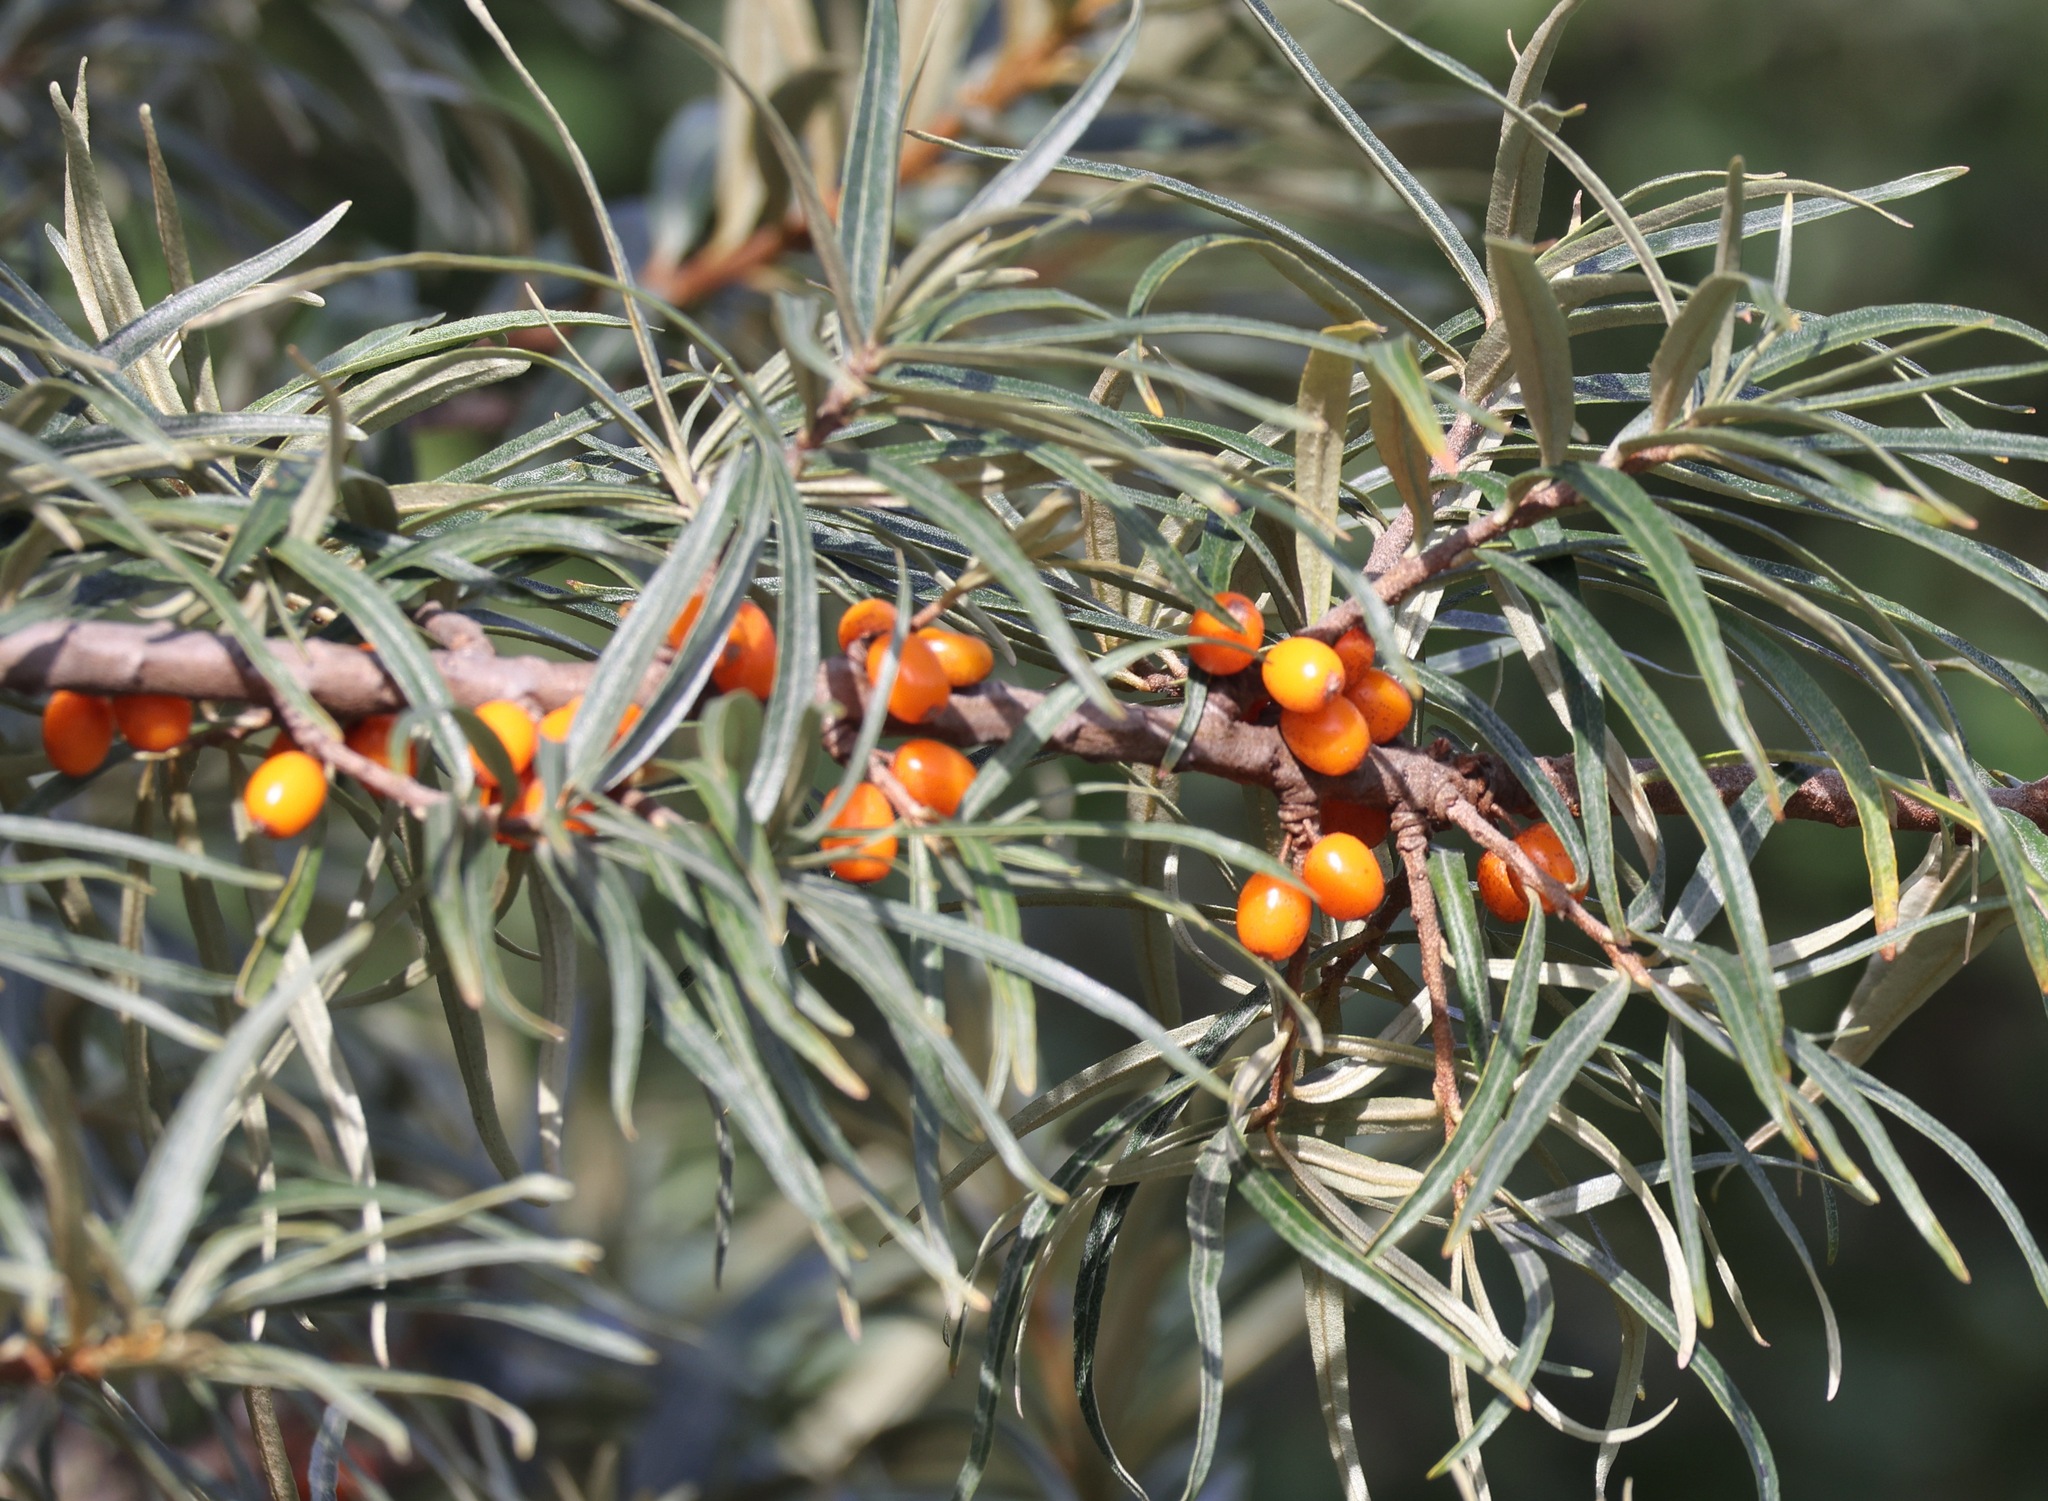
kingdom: Plantae
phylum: Tracheophyta
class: Magnoliopsida
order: Rosales
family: Elaeagnaceae
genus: Hippophae
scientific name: Hippophae rhamnoides
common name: Sea-buckthorn
